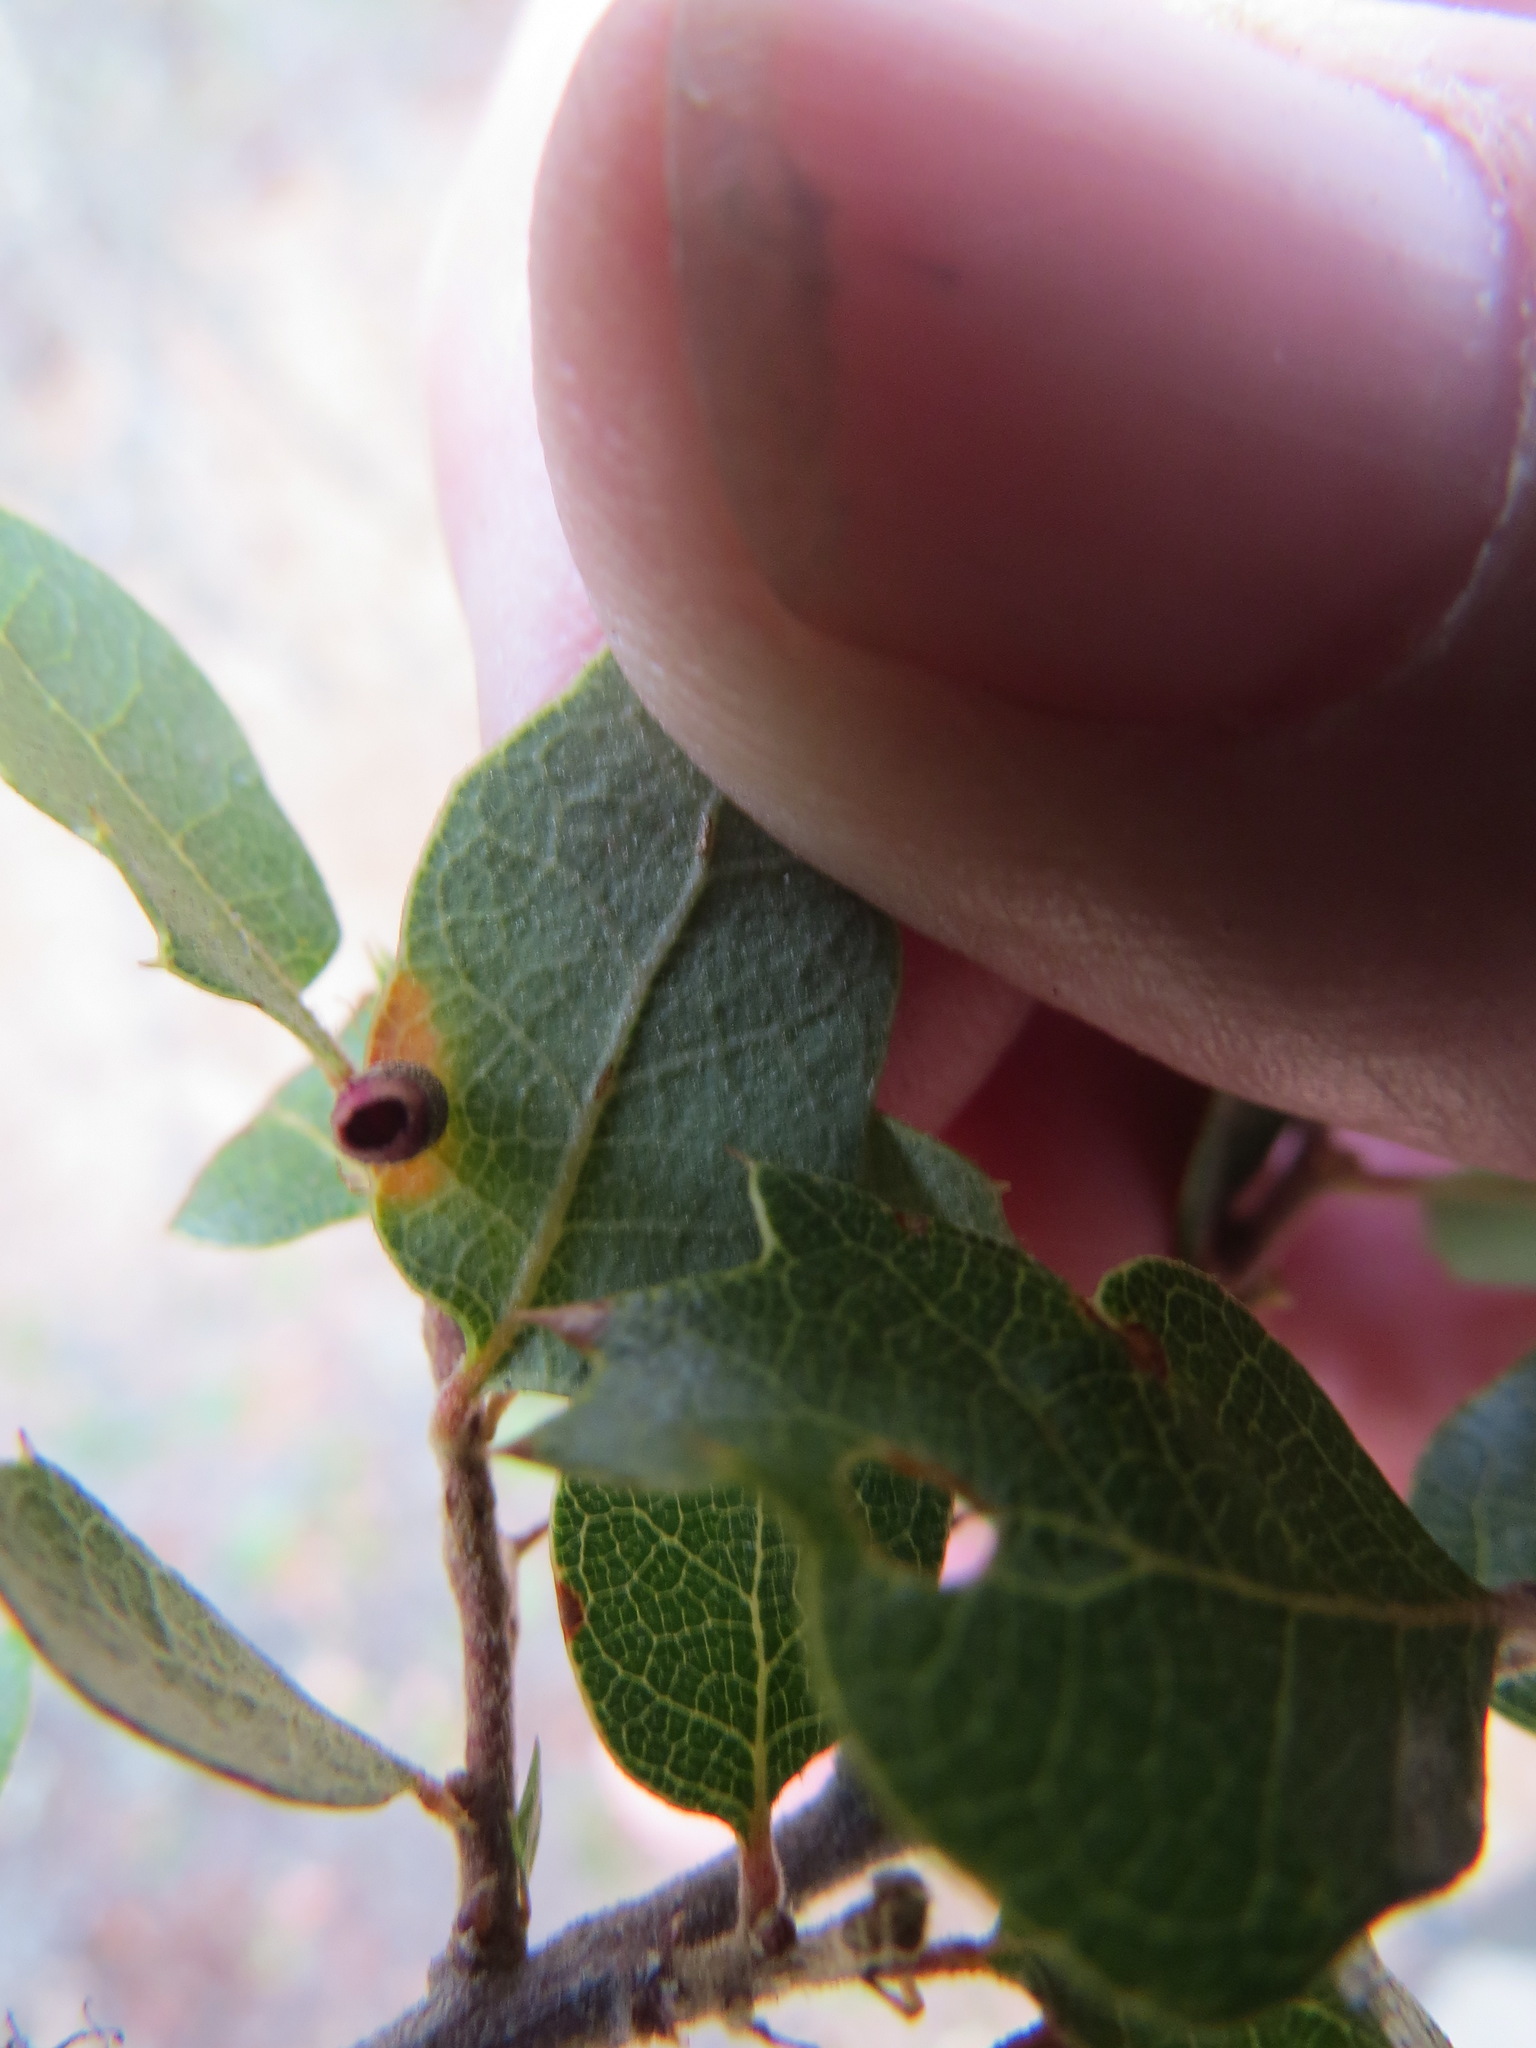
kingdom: Animalia
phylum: Arthropoda
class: Insecta
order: Hymenoptera
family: Cynipidae
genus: Phylloteras
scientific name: Phylloteras
